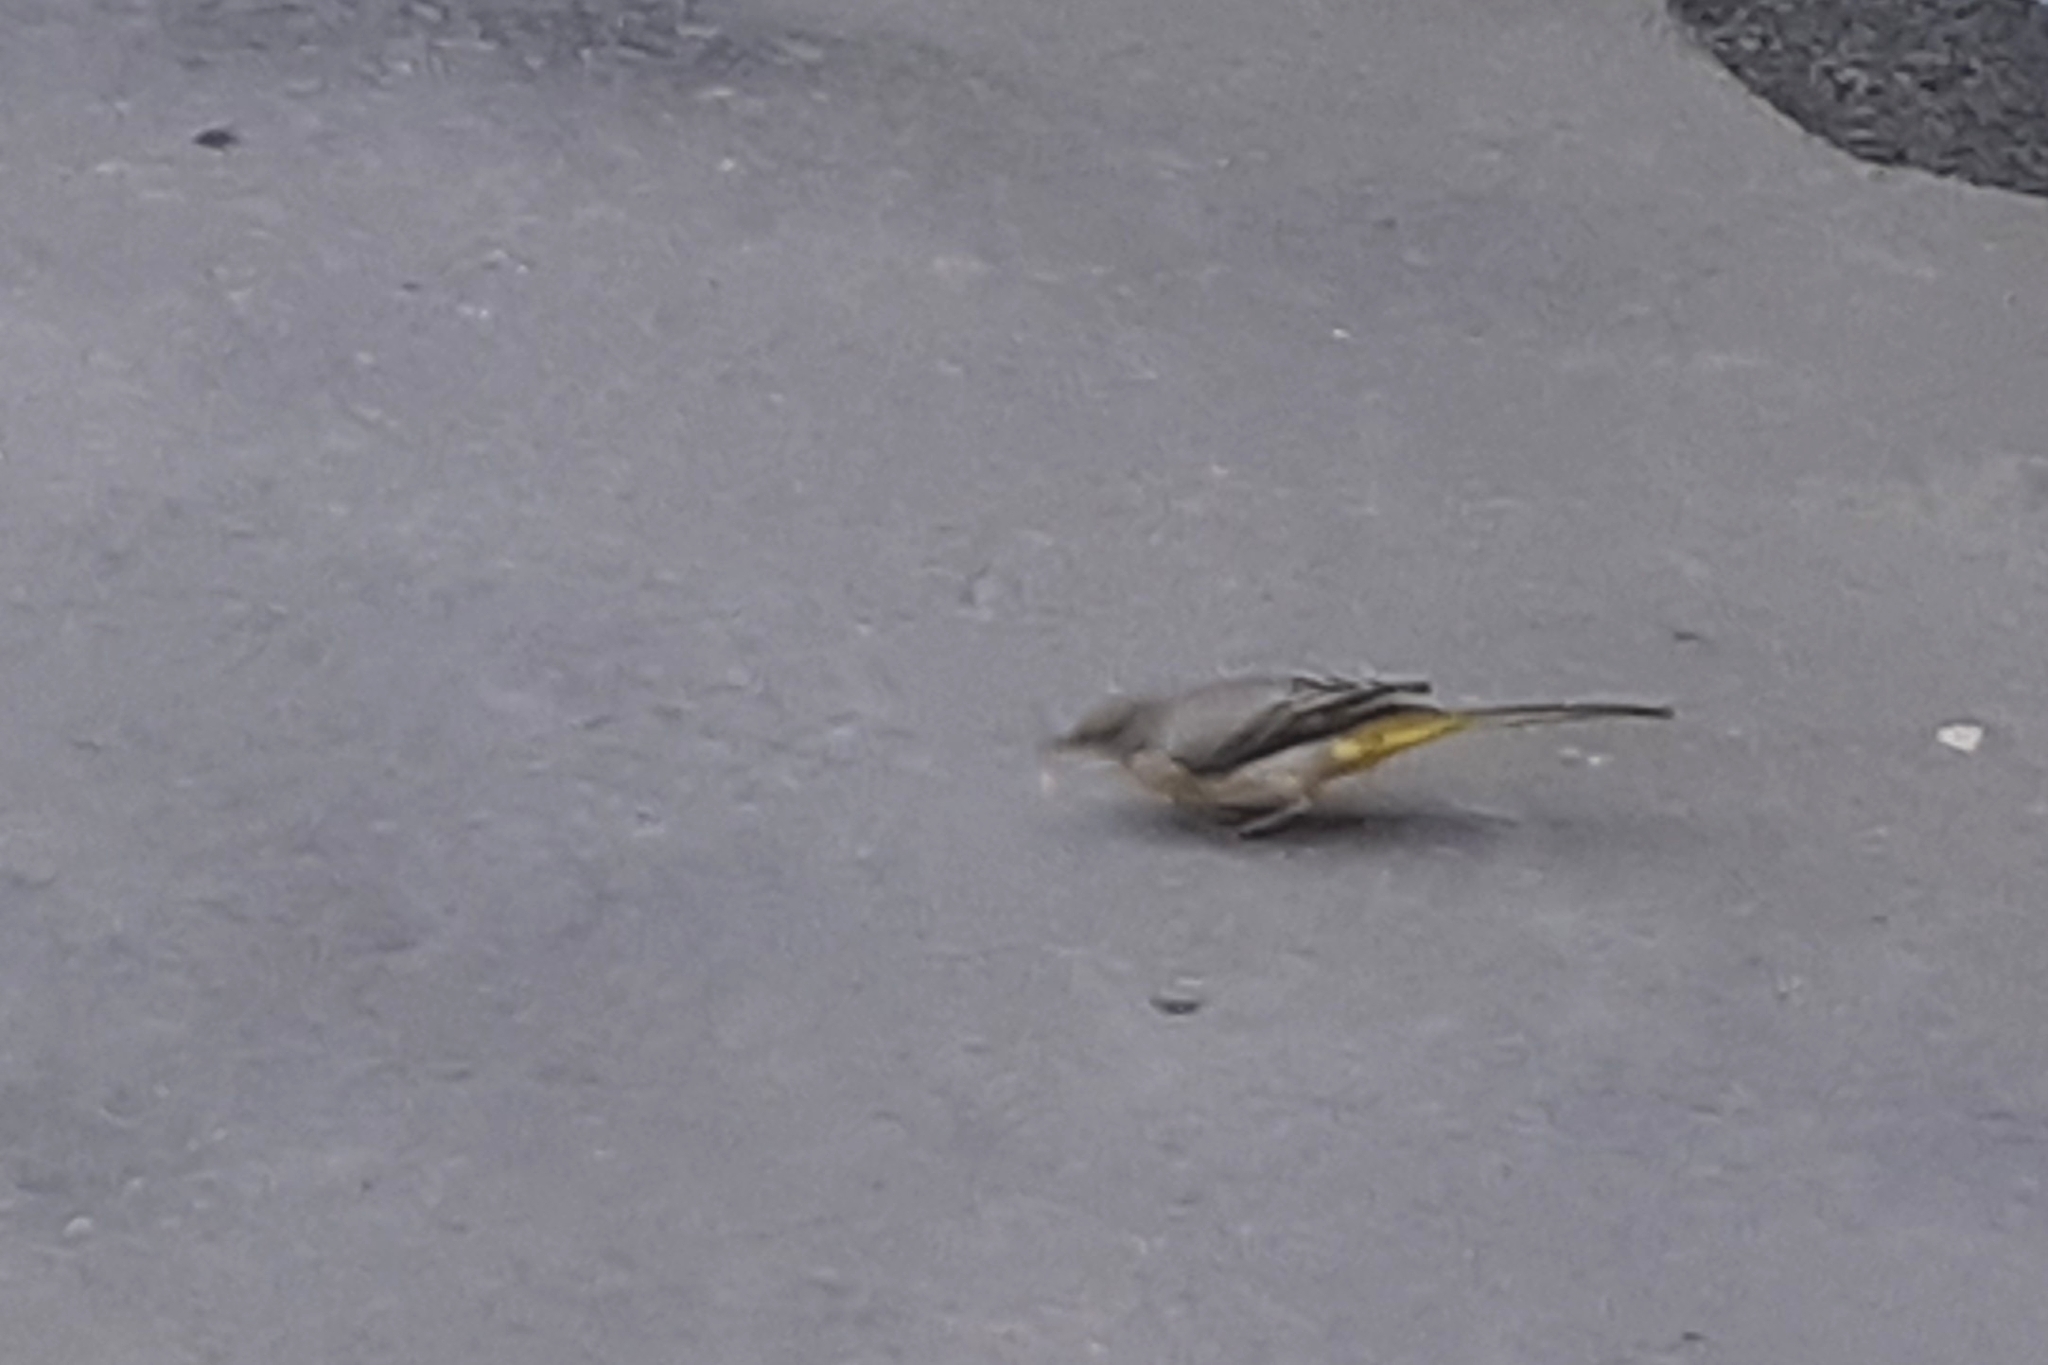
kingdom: Animalia
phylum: Chordata
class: Aves
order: Passeriformes
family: Motacillidae
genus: Motacilla
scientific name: Motacilla cinerea
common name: Grey wagtail
